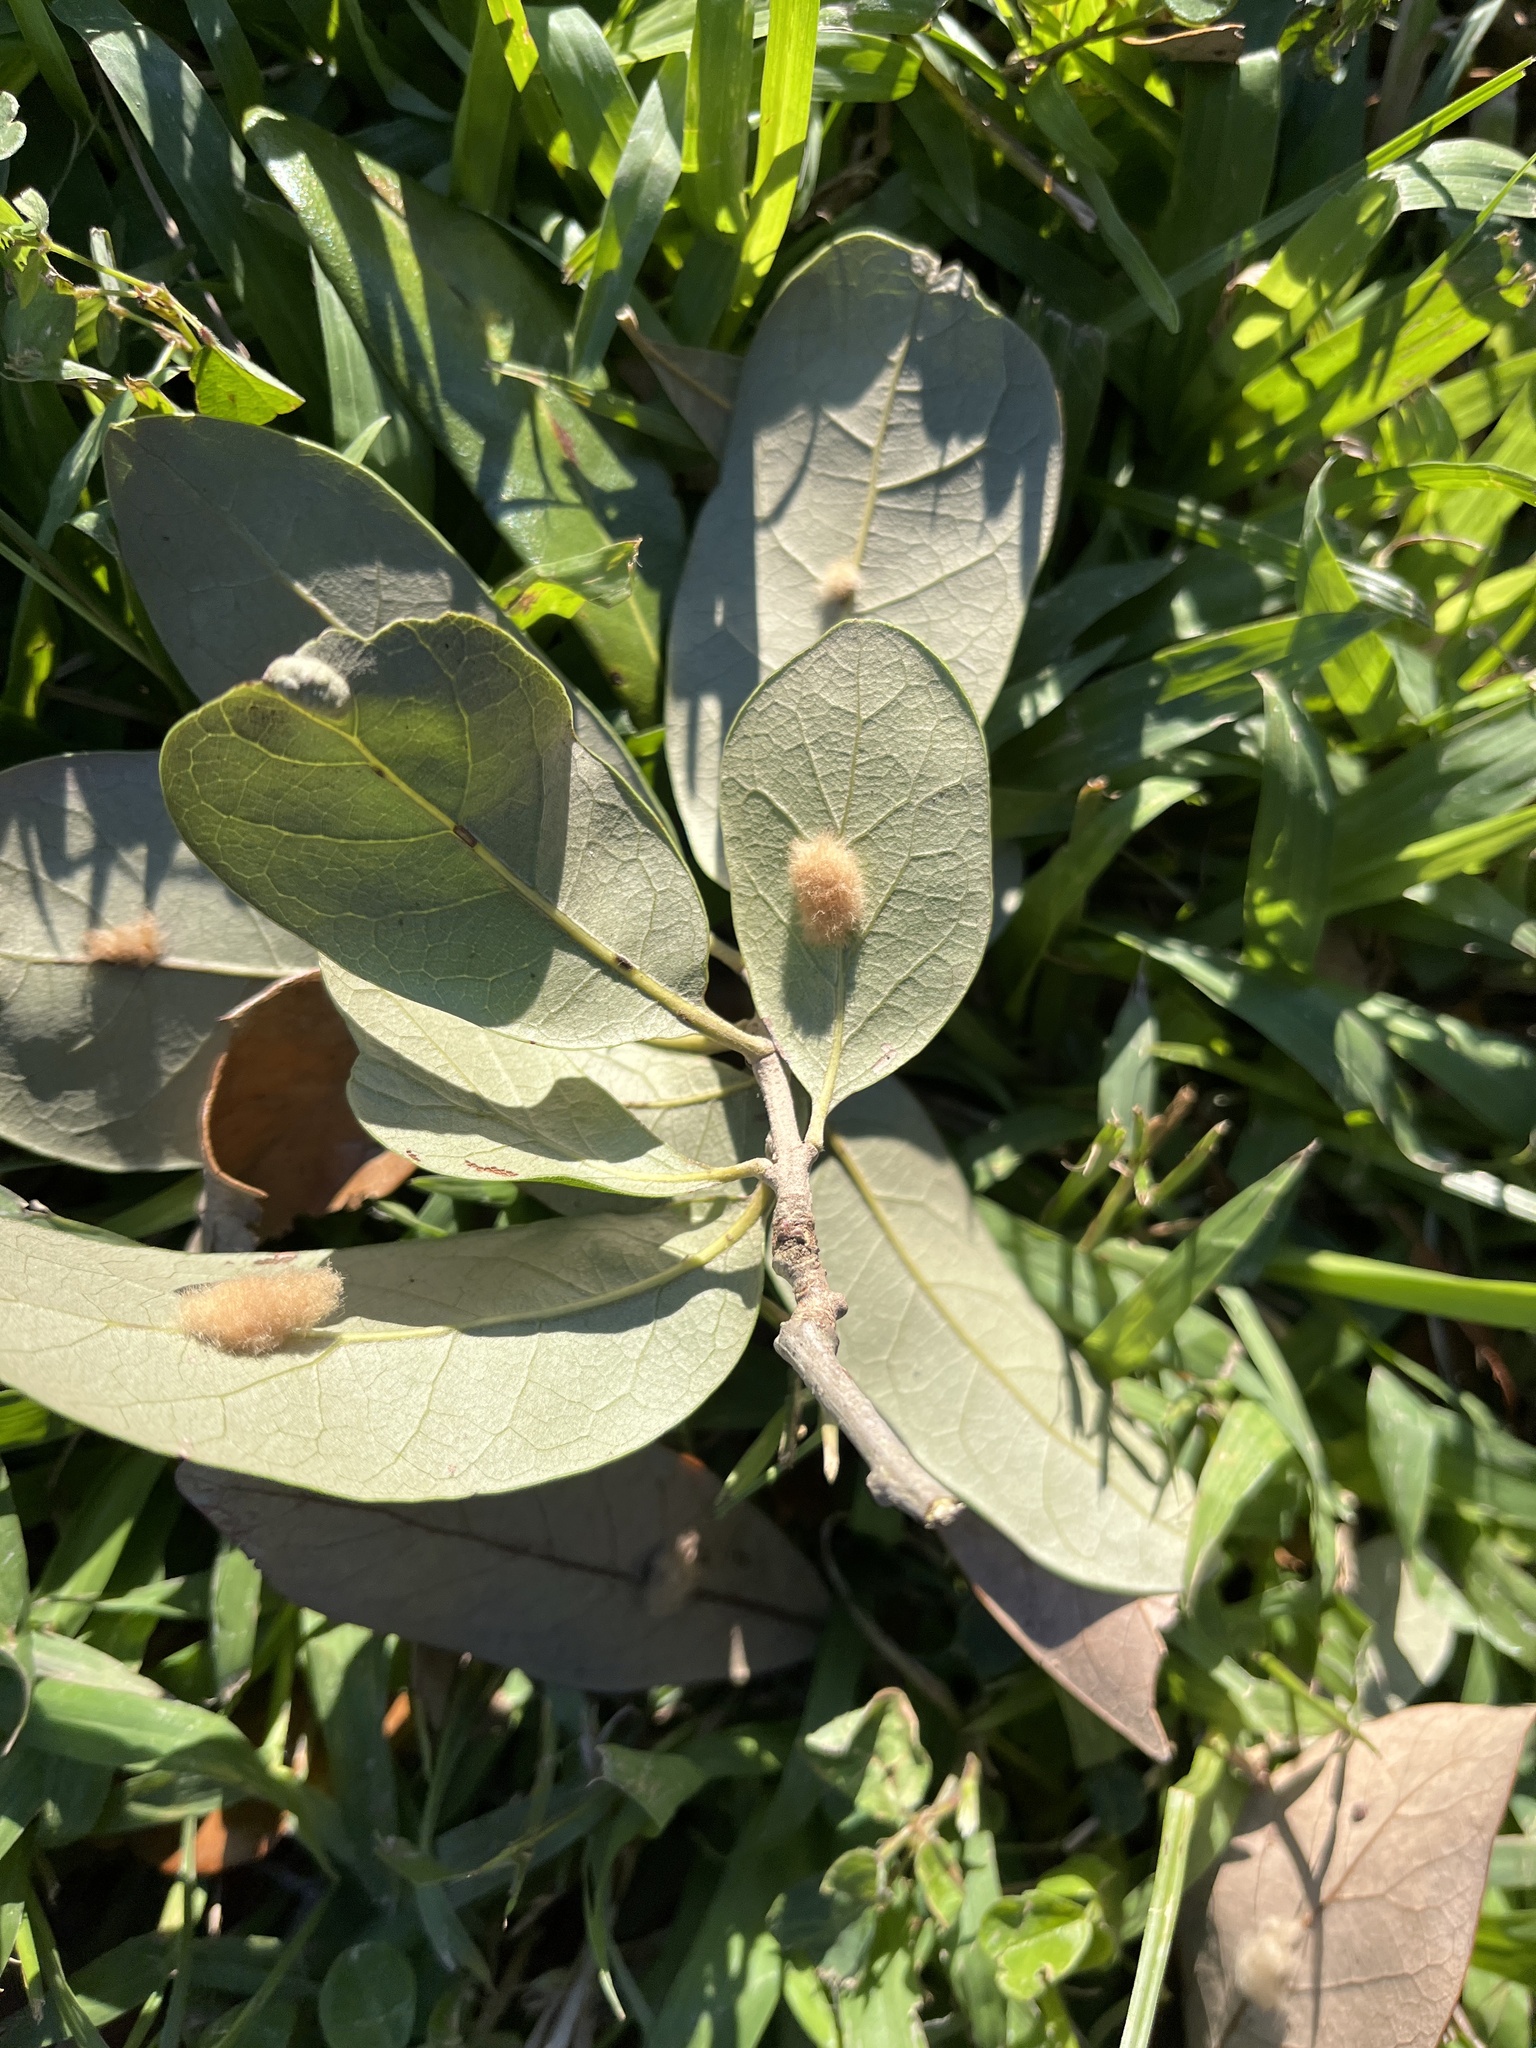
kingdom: Animalia
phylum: Arthropoda
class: Insecta
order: Hymenoptera
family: Cynipidae
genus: Andricus
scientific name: Andricus Druon quercuslanigerum
